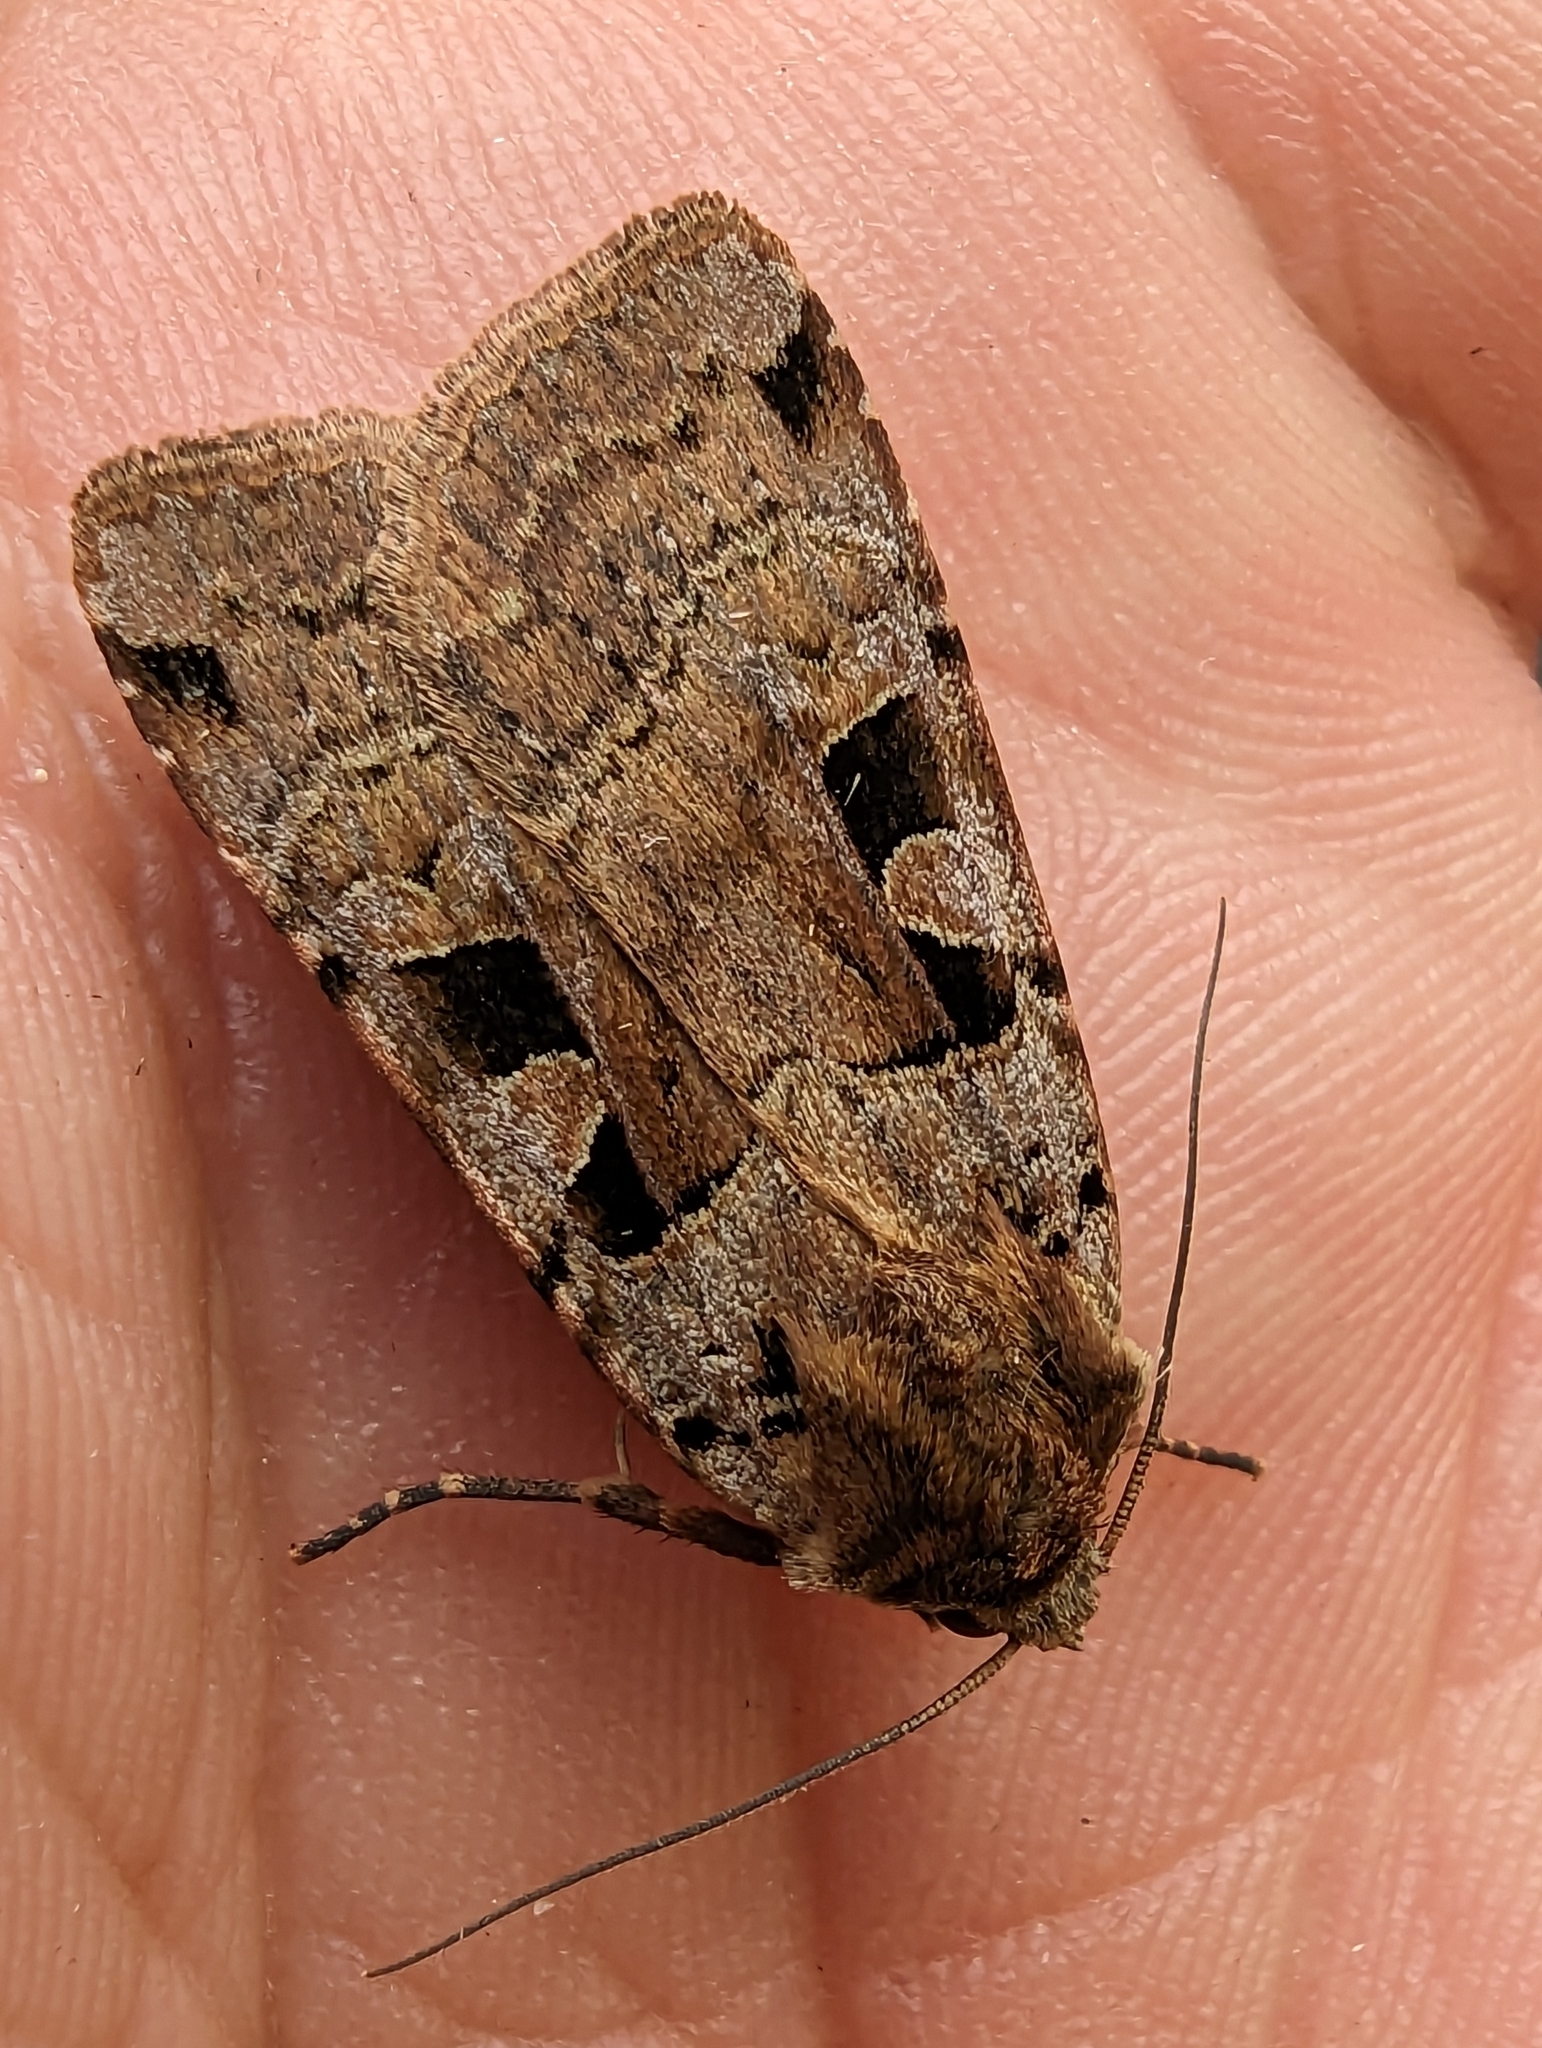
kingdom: Animalia
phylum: Arthropoda
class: Insecta
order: Lepidoptera
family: Noctuidae
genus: Xestia
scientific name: Xestia triangulum
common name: Double square-spot
